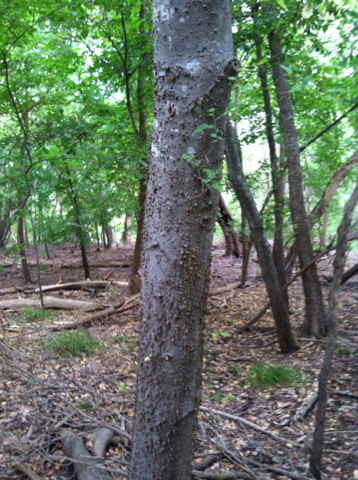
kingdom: Plantae
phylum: Tracheophyta
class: Magnoliopsida
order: Rosales
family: Cannabaceae
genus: Celtis
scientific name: Celtis laevigata
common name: Sugarberry
